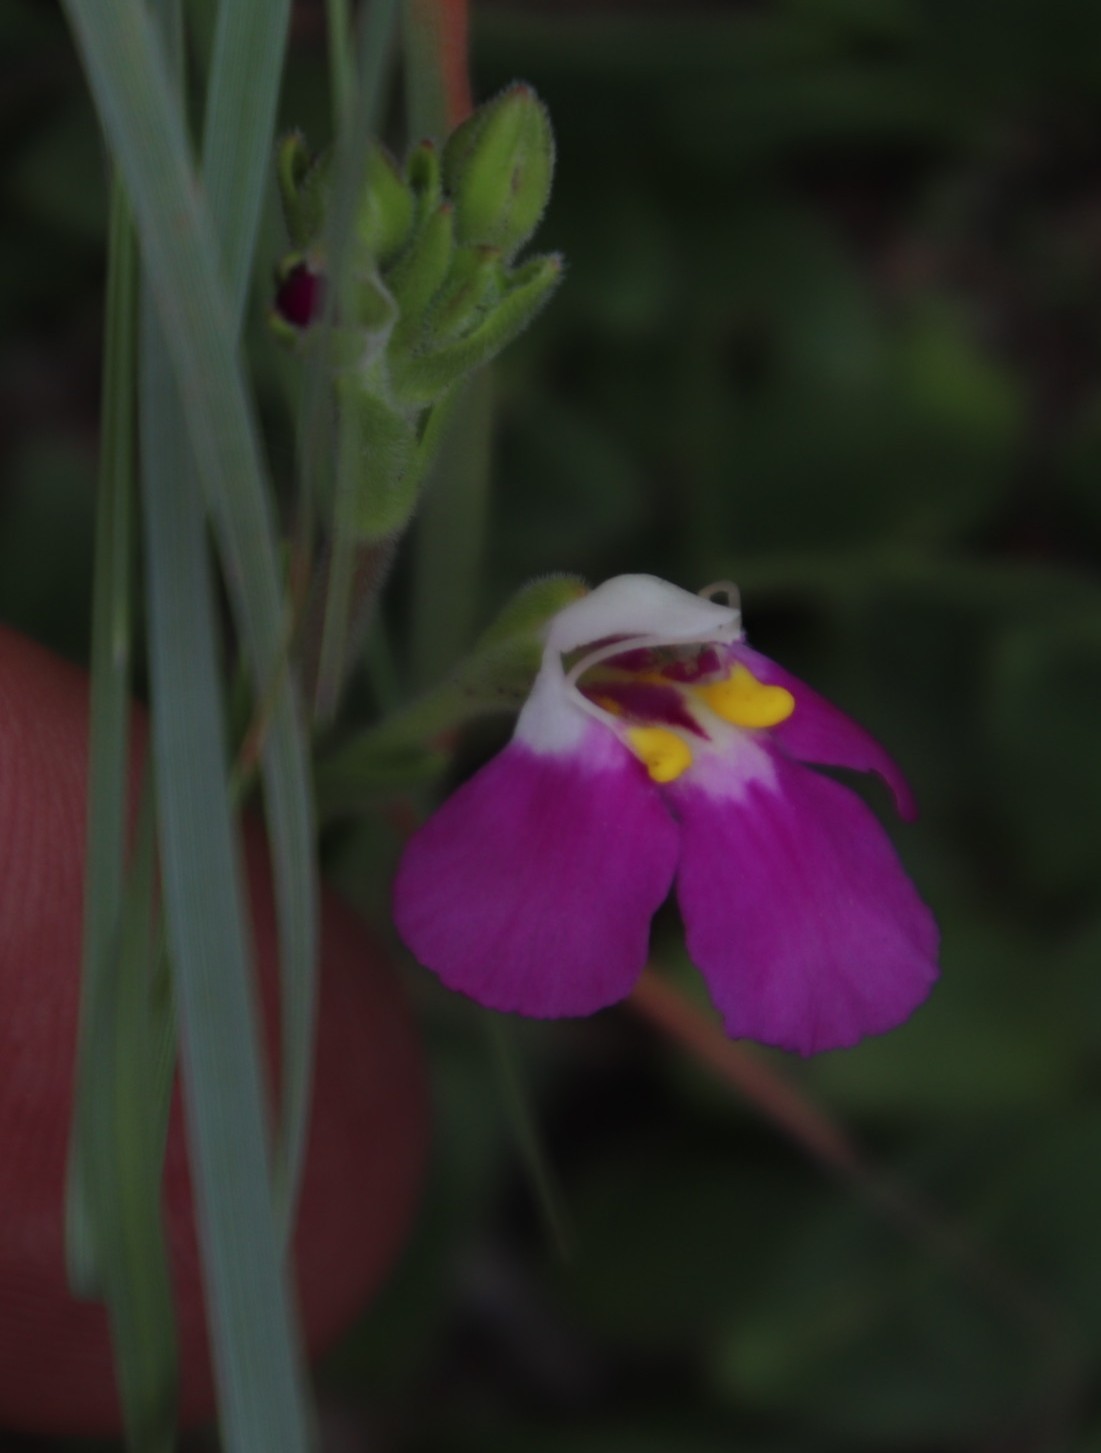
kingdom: Plantae
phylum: Tracheophyta
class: Magnoliopsida
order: Lamiales
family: Linderniaceae
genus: Craterostigma
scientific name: Craterostigma wilmsii
